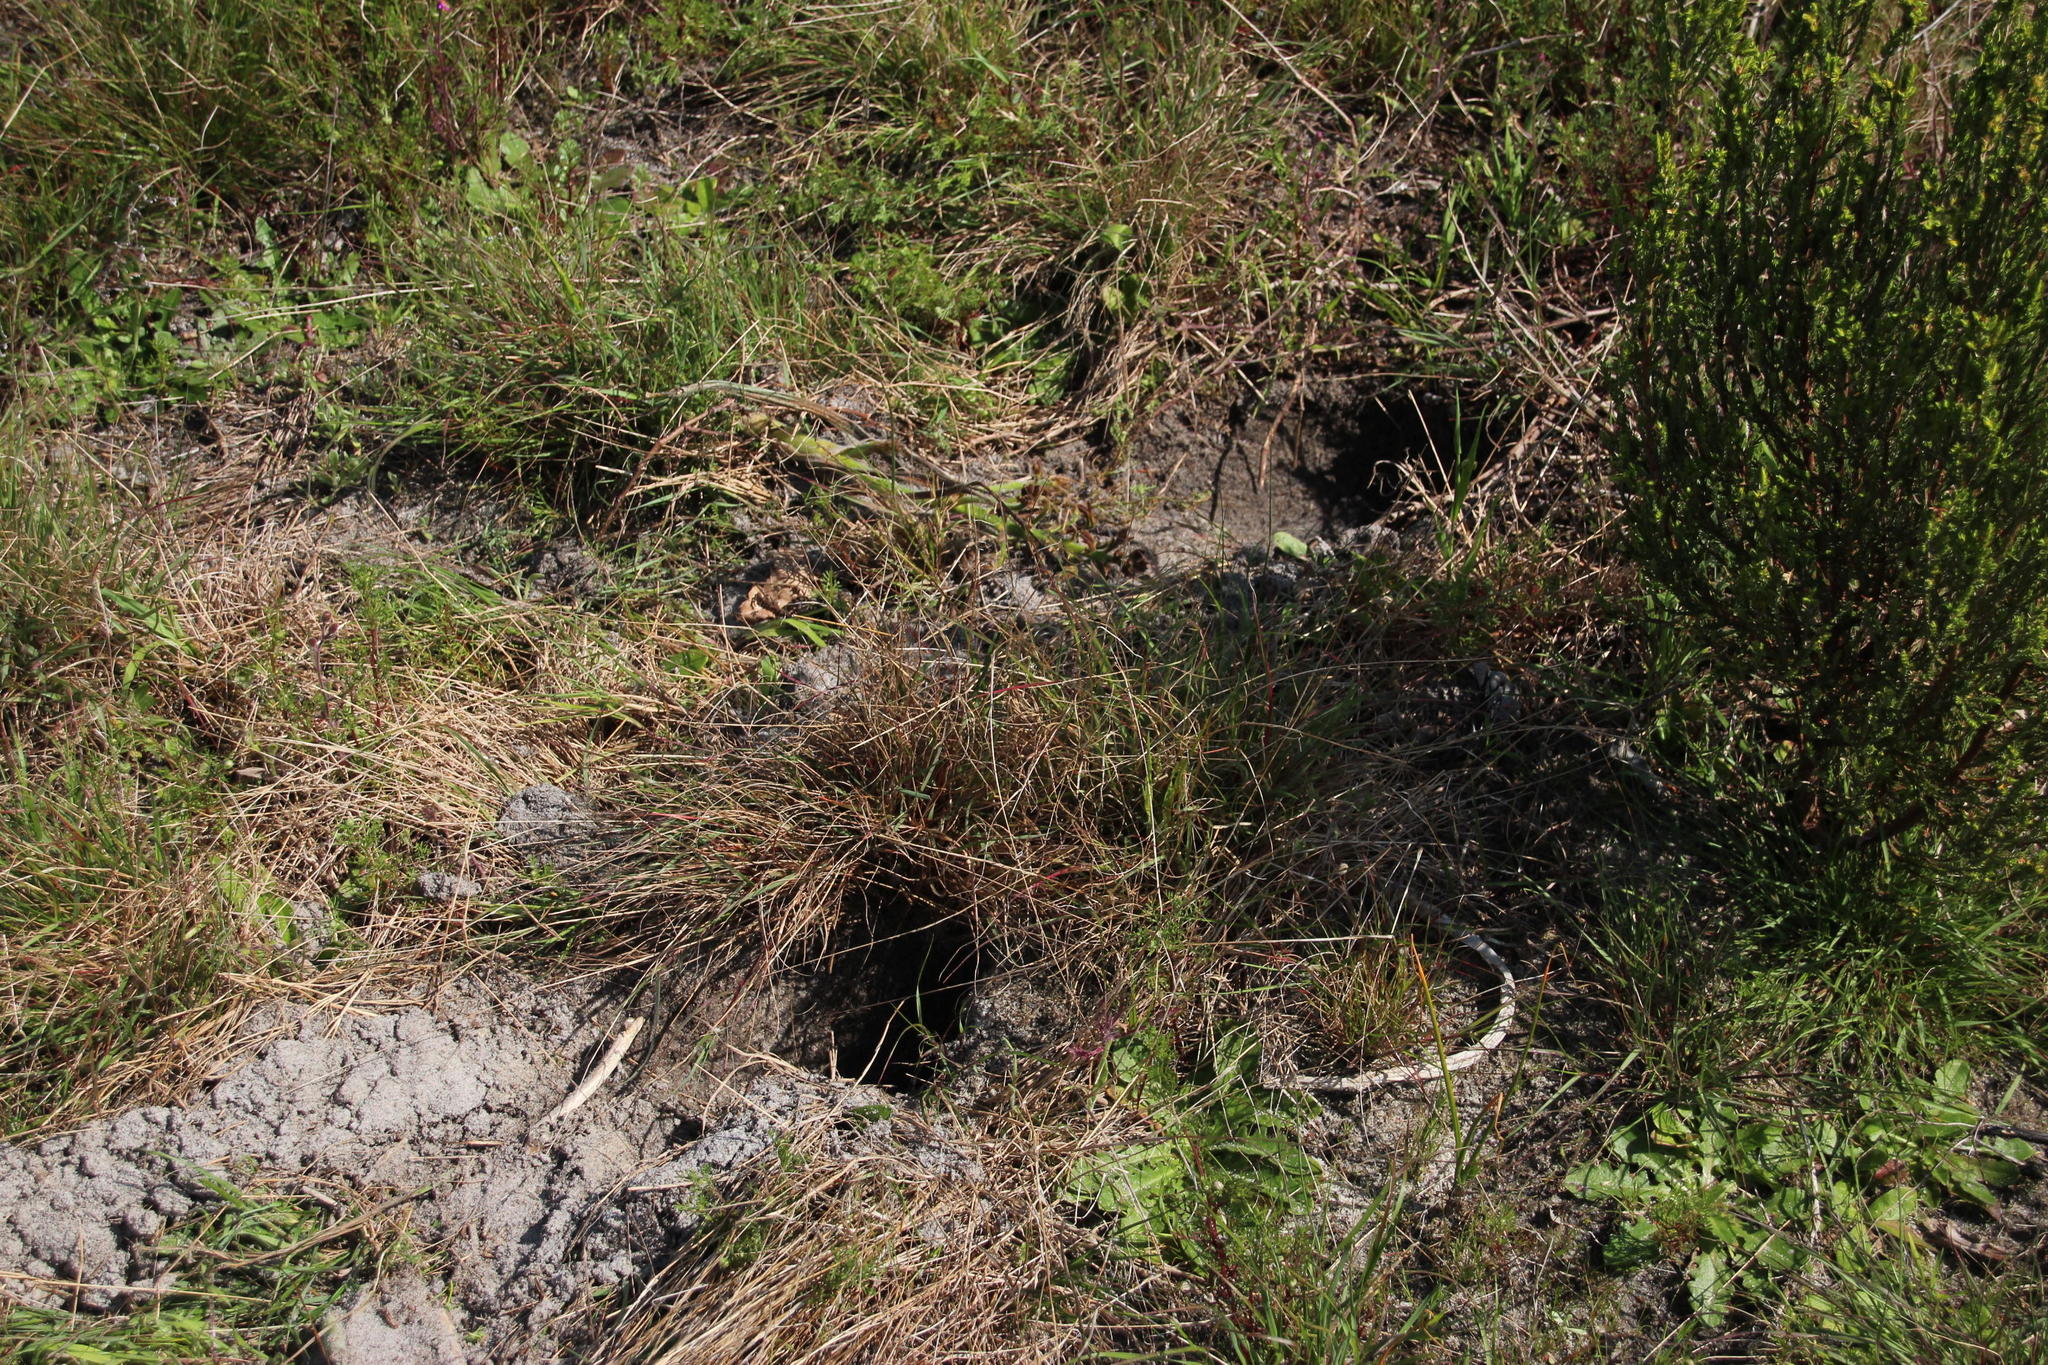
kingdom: Animalia
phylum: Chordata
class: Mammalia
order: Rodentia
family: Hystricidae
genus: Hystrix
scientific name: Hystrix africaeaustralis
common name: Cape porcupine
